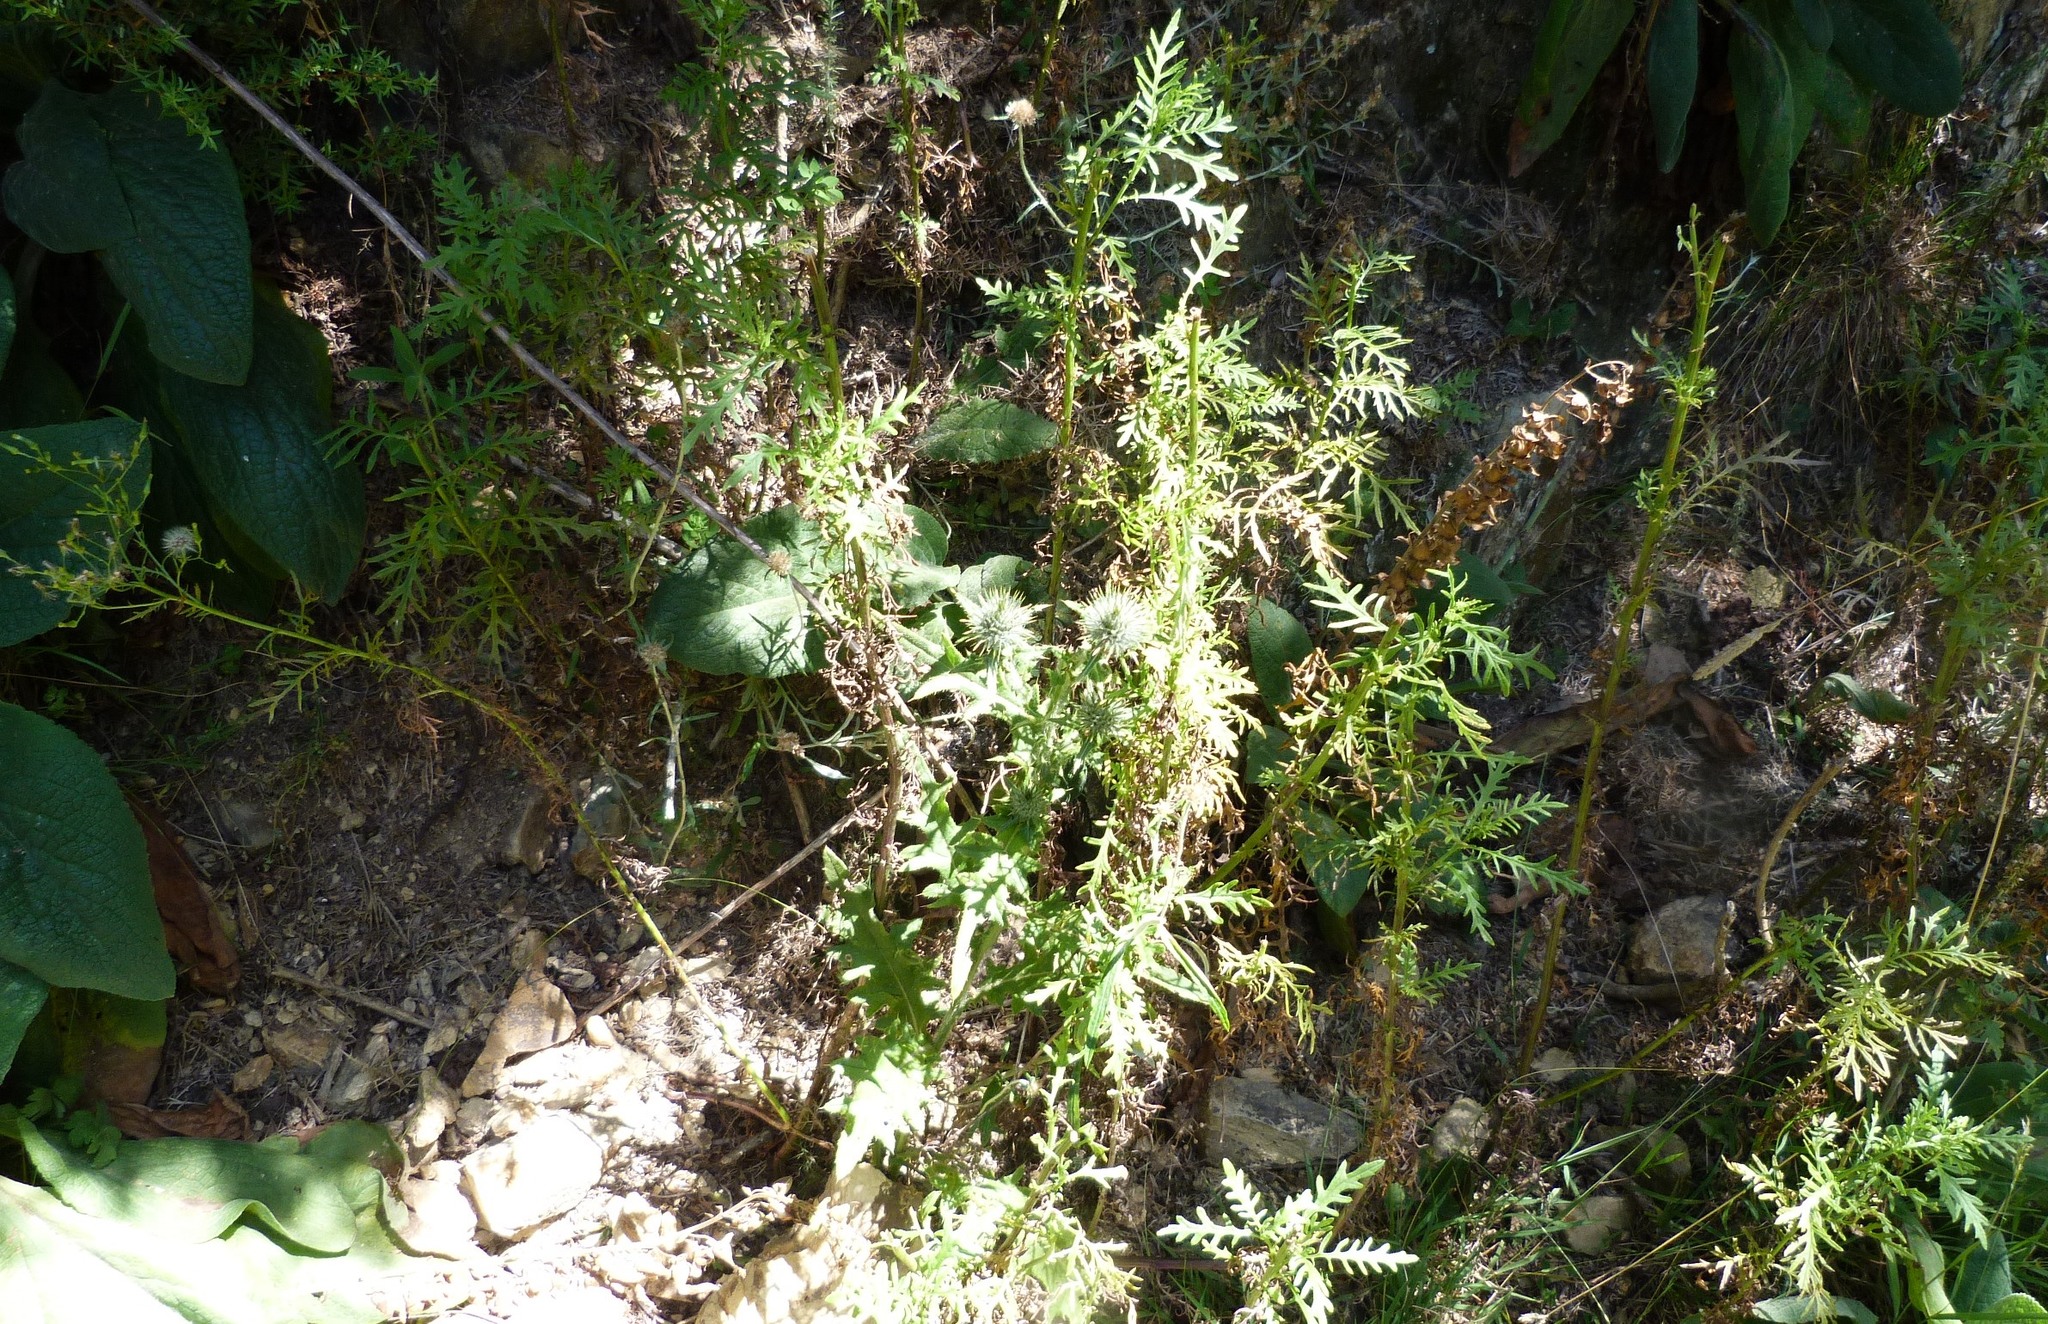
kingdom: Plantae
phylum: Tracheophyta
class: Magnoliopsida
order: Asterales
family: Asteraceae
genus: Senecio
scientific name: Senecio bipinnatisectus
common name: Australian fireweed
